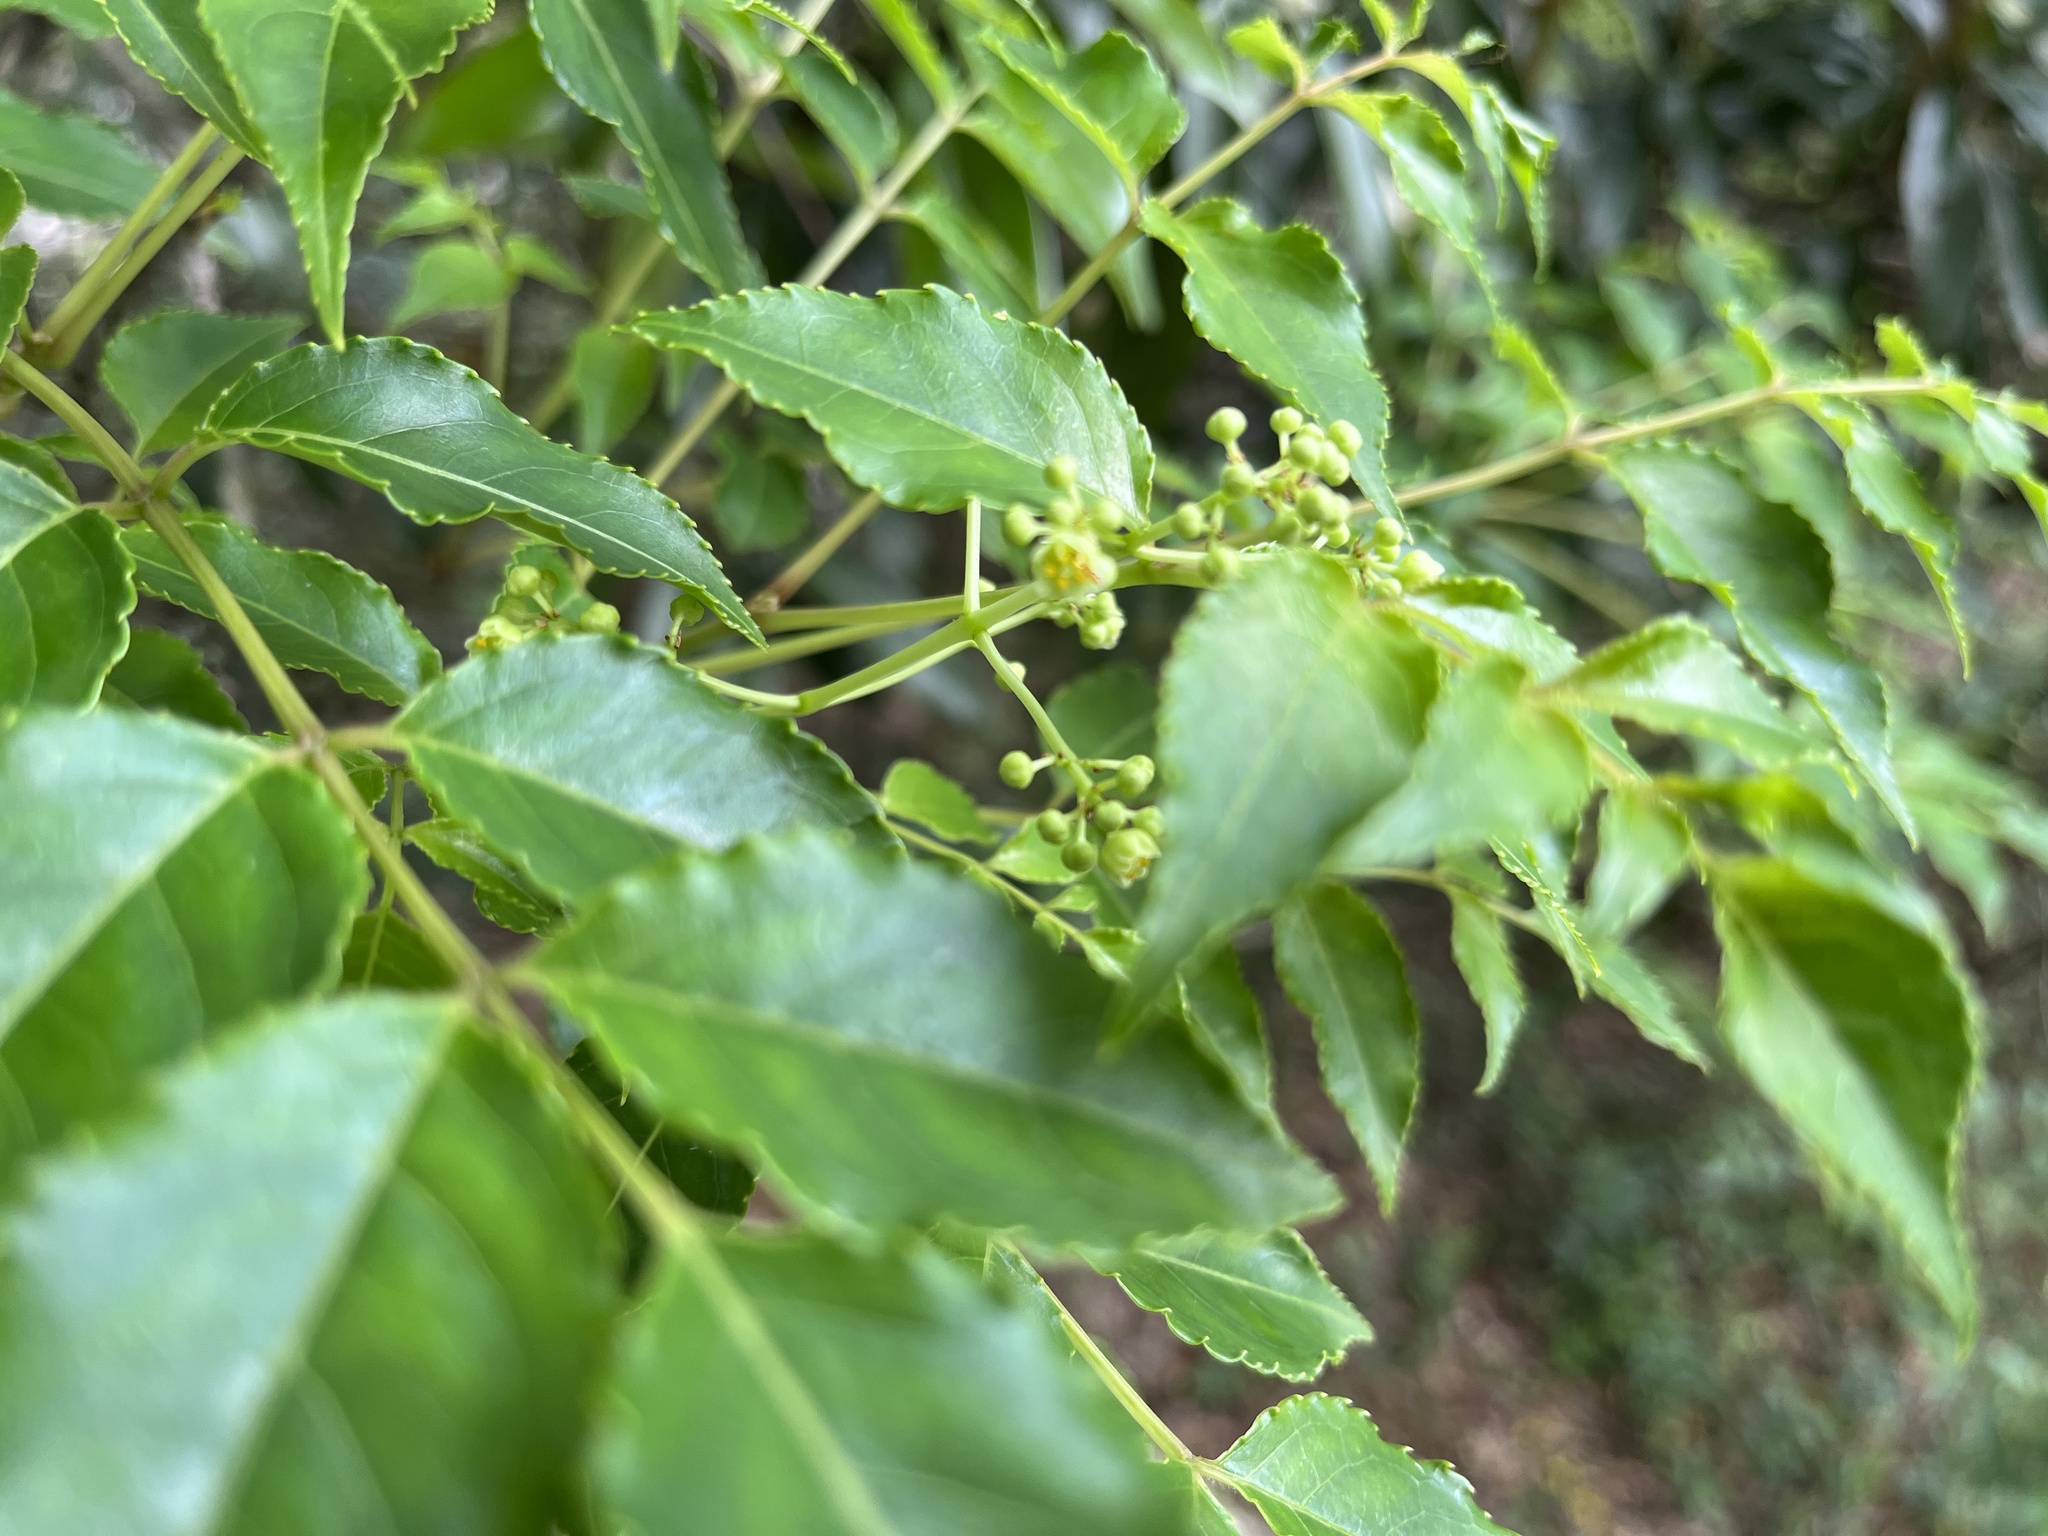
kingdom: Plantae
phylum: Tracheophyta
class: Magnoliopsida
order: Crossosomatales
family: Staphyleaceae
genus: Staphylea
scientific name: Staphylea japonica
